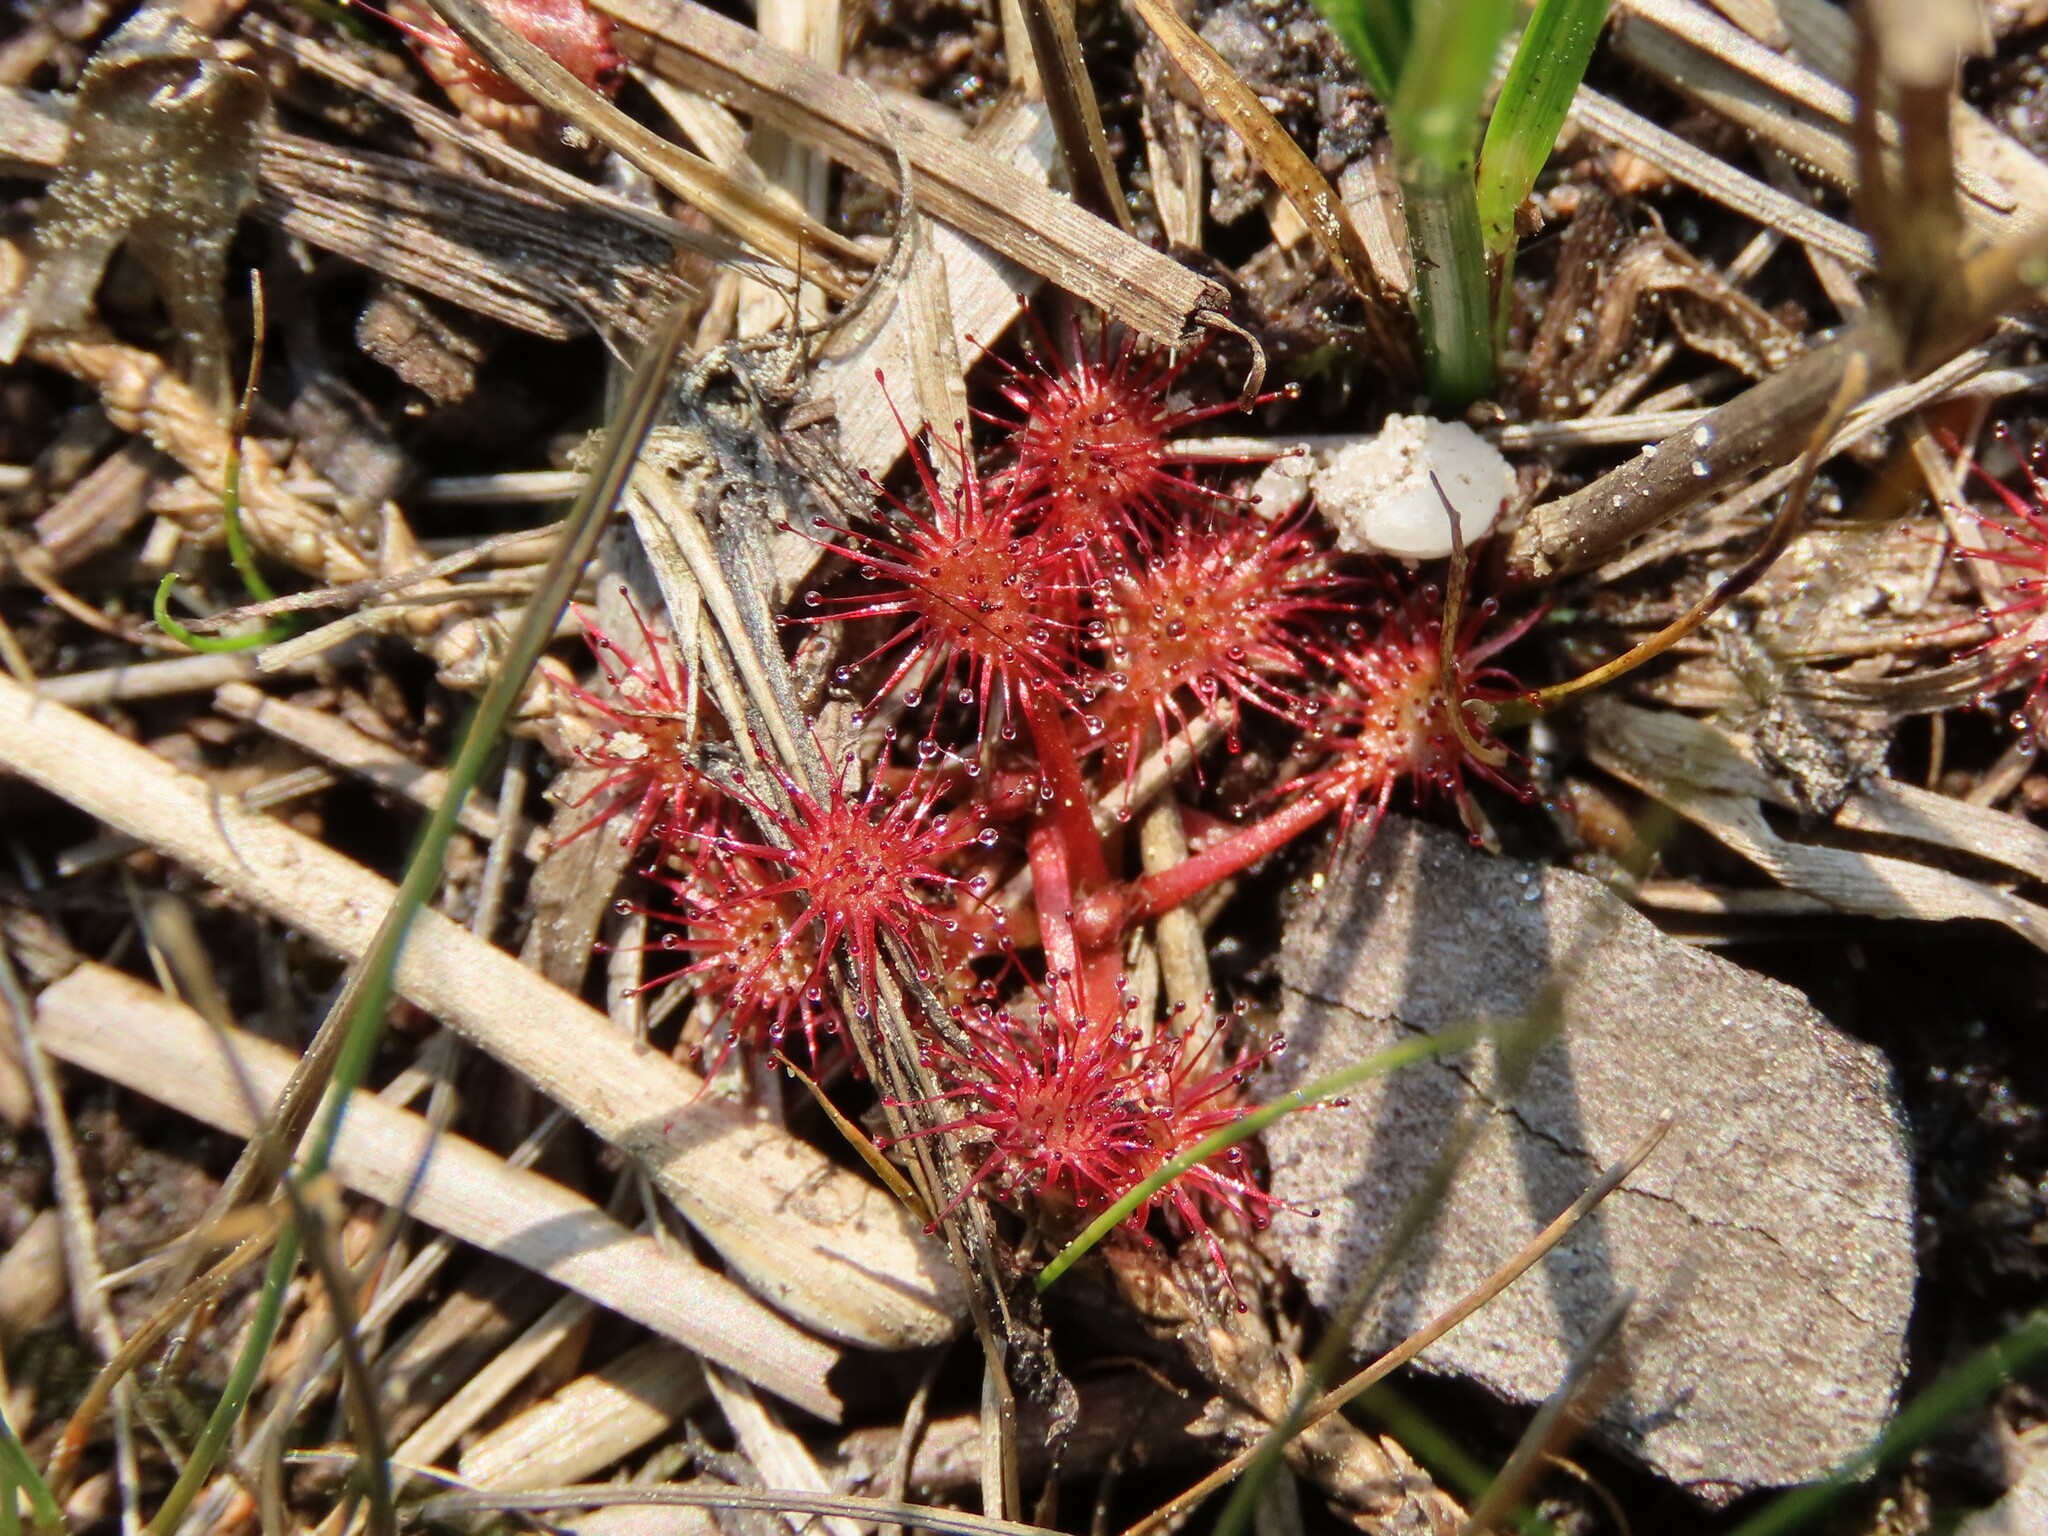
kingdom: Plantae
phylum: Tracheophyta
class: Magnoliopsida
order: Caryophyllales
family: Droseraceae
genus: Drosera
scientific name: Drosera intermedia
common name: Oblong-leaved sundew
